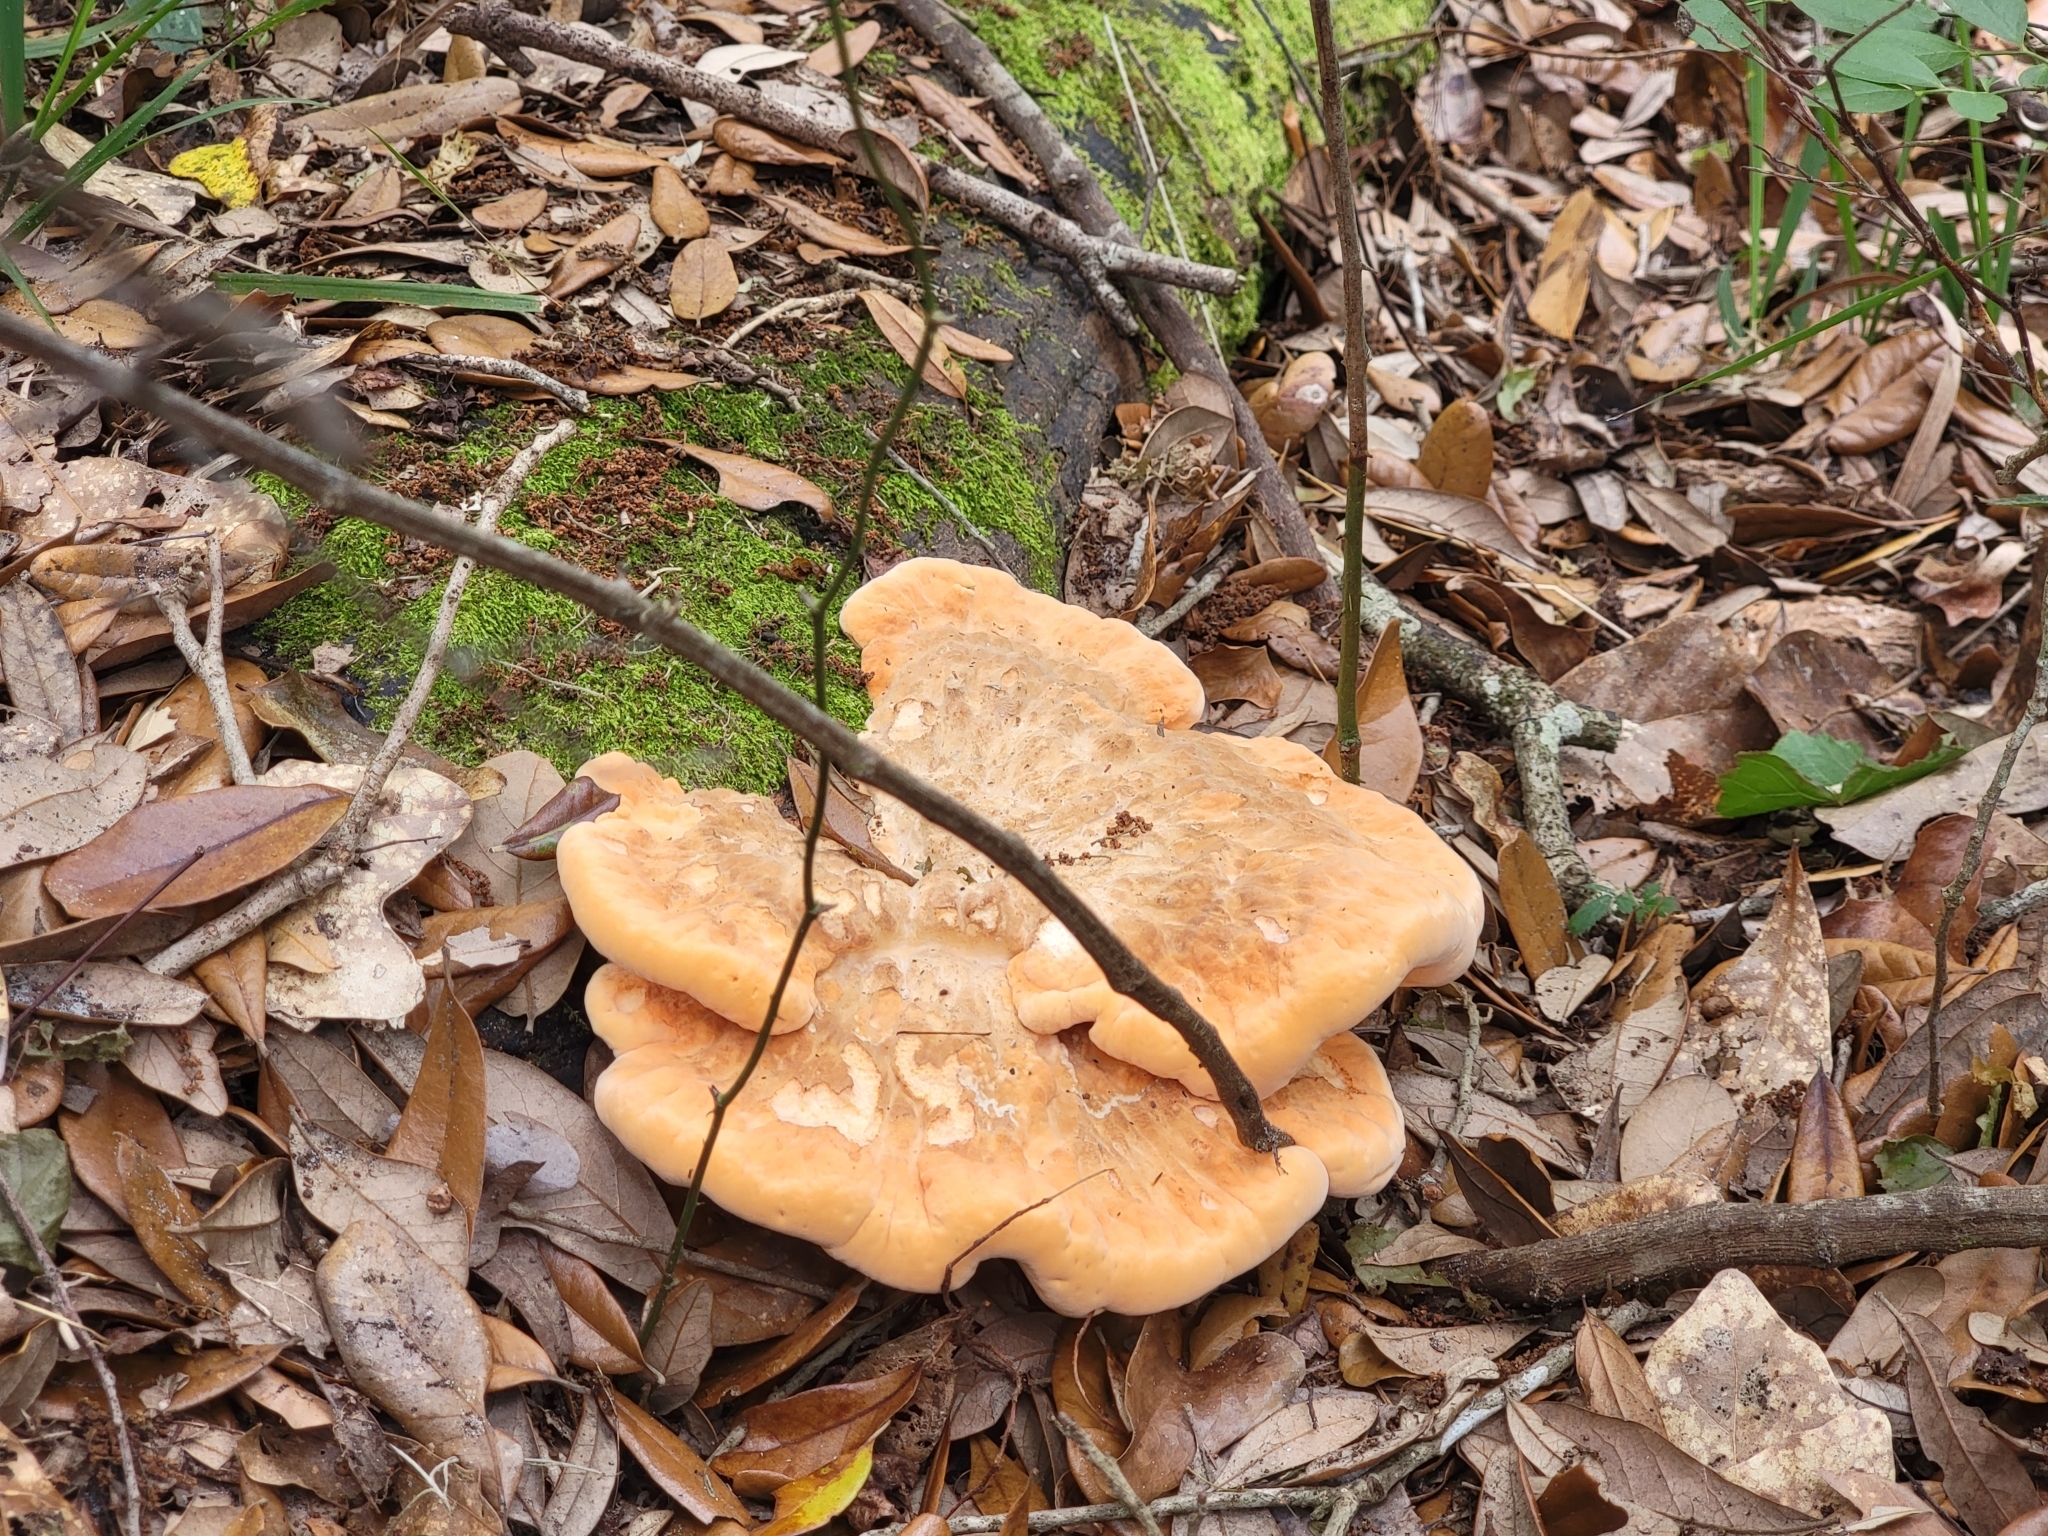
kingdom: Fungi
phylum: Basidiomycota
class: Agaricomycetes
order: Polyporales
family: Fomitopsidaceae
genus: Pseudophaeolus
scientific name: Pseudophaeolus
